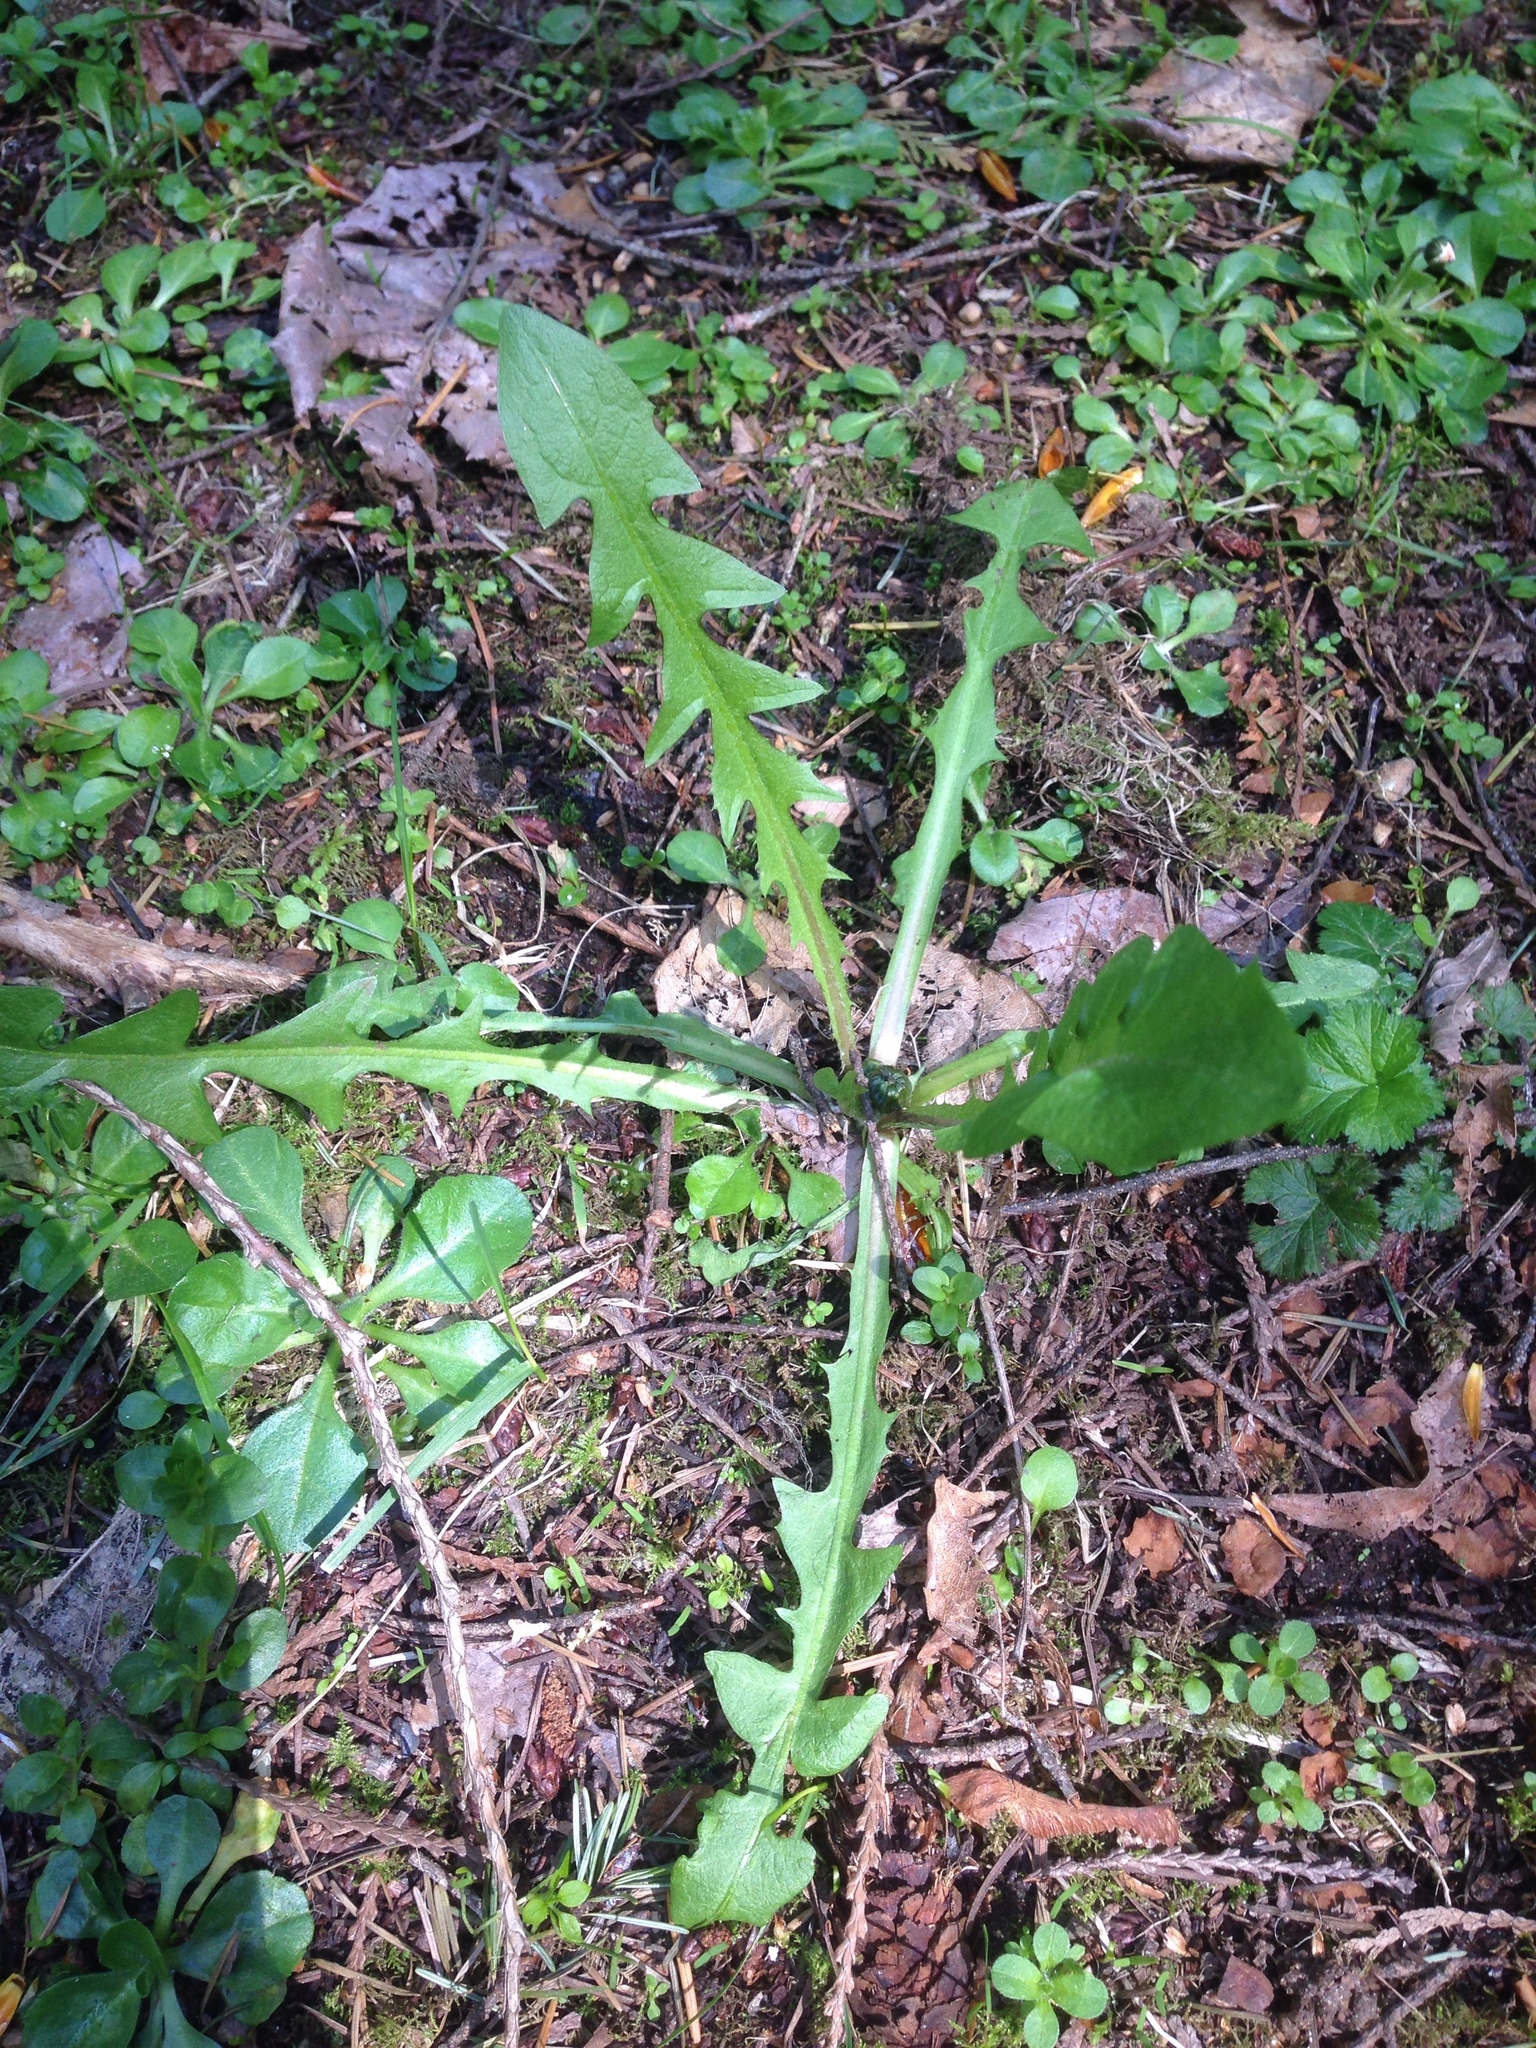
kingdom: Plantae
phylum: Tracheophyta
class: Magnoliopsida
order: Asterales
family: Asteraceae
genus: Taraxacum
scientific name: Taraxacum officinale
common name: Common dandelion
